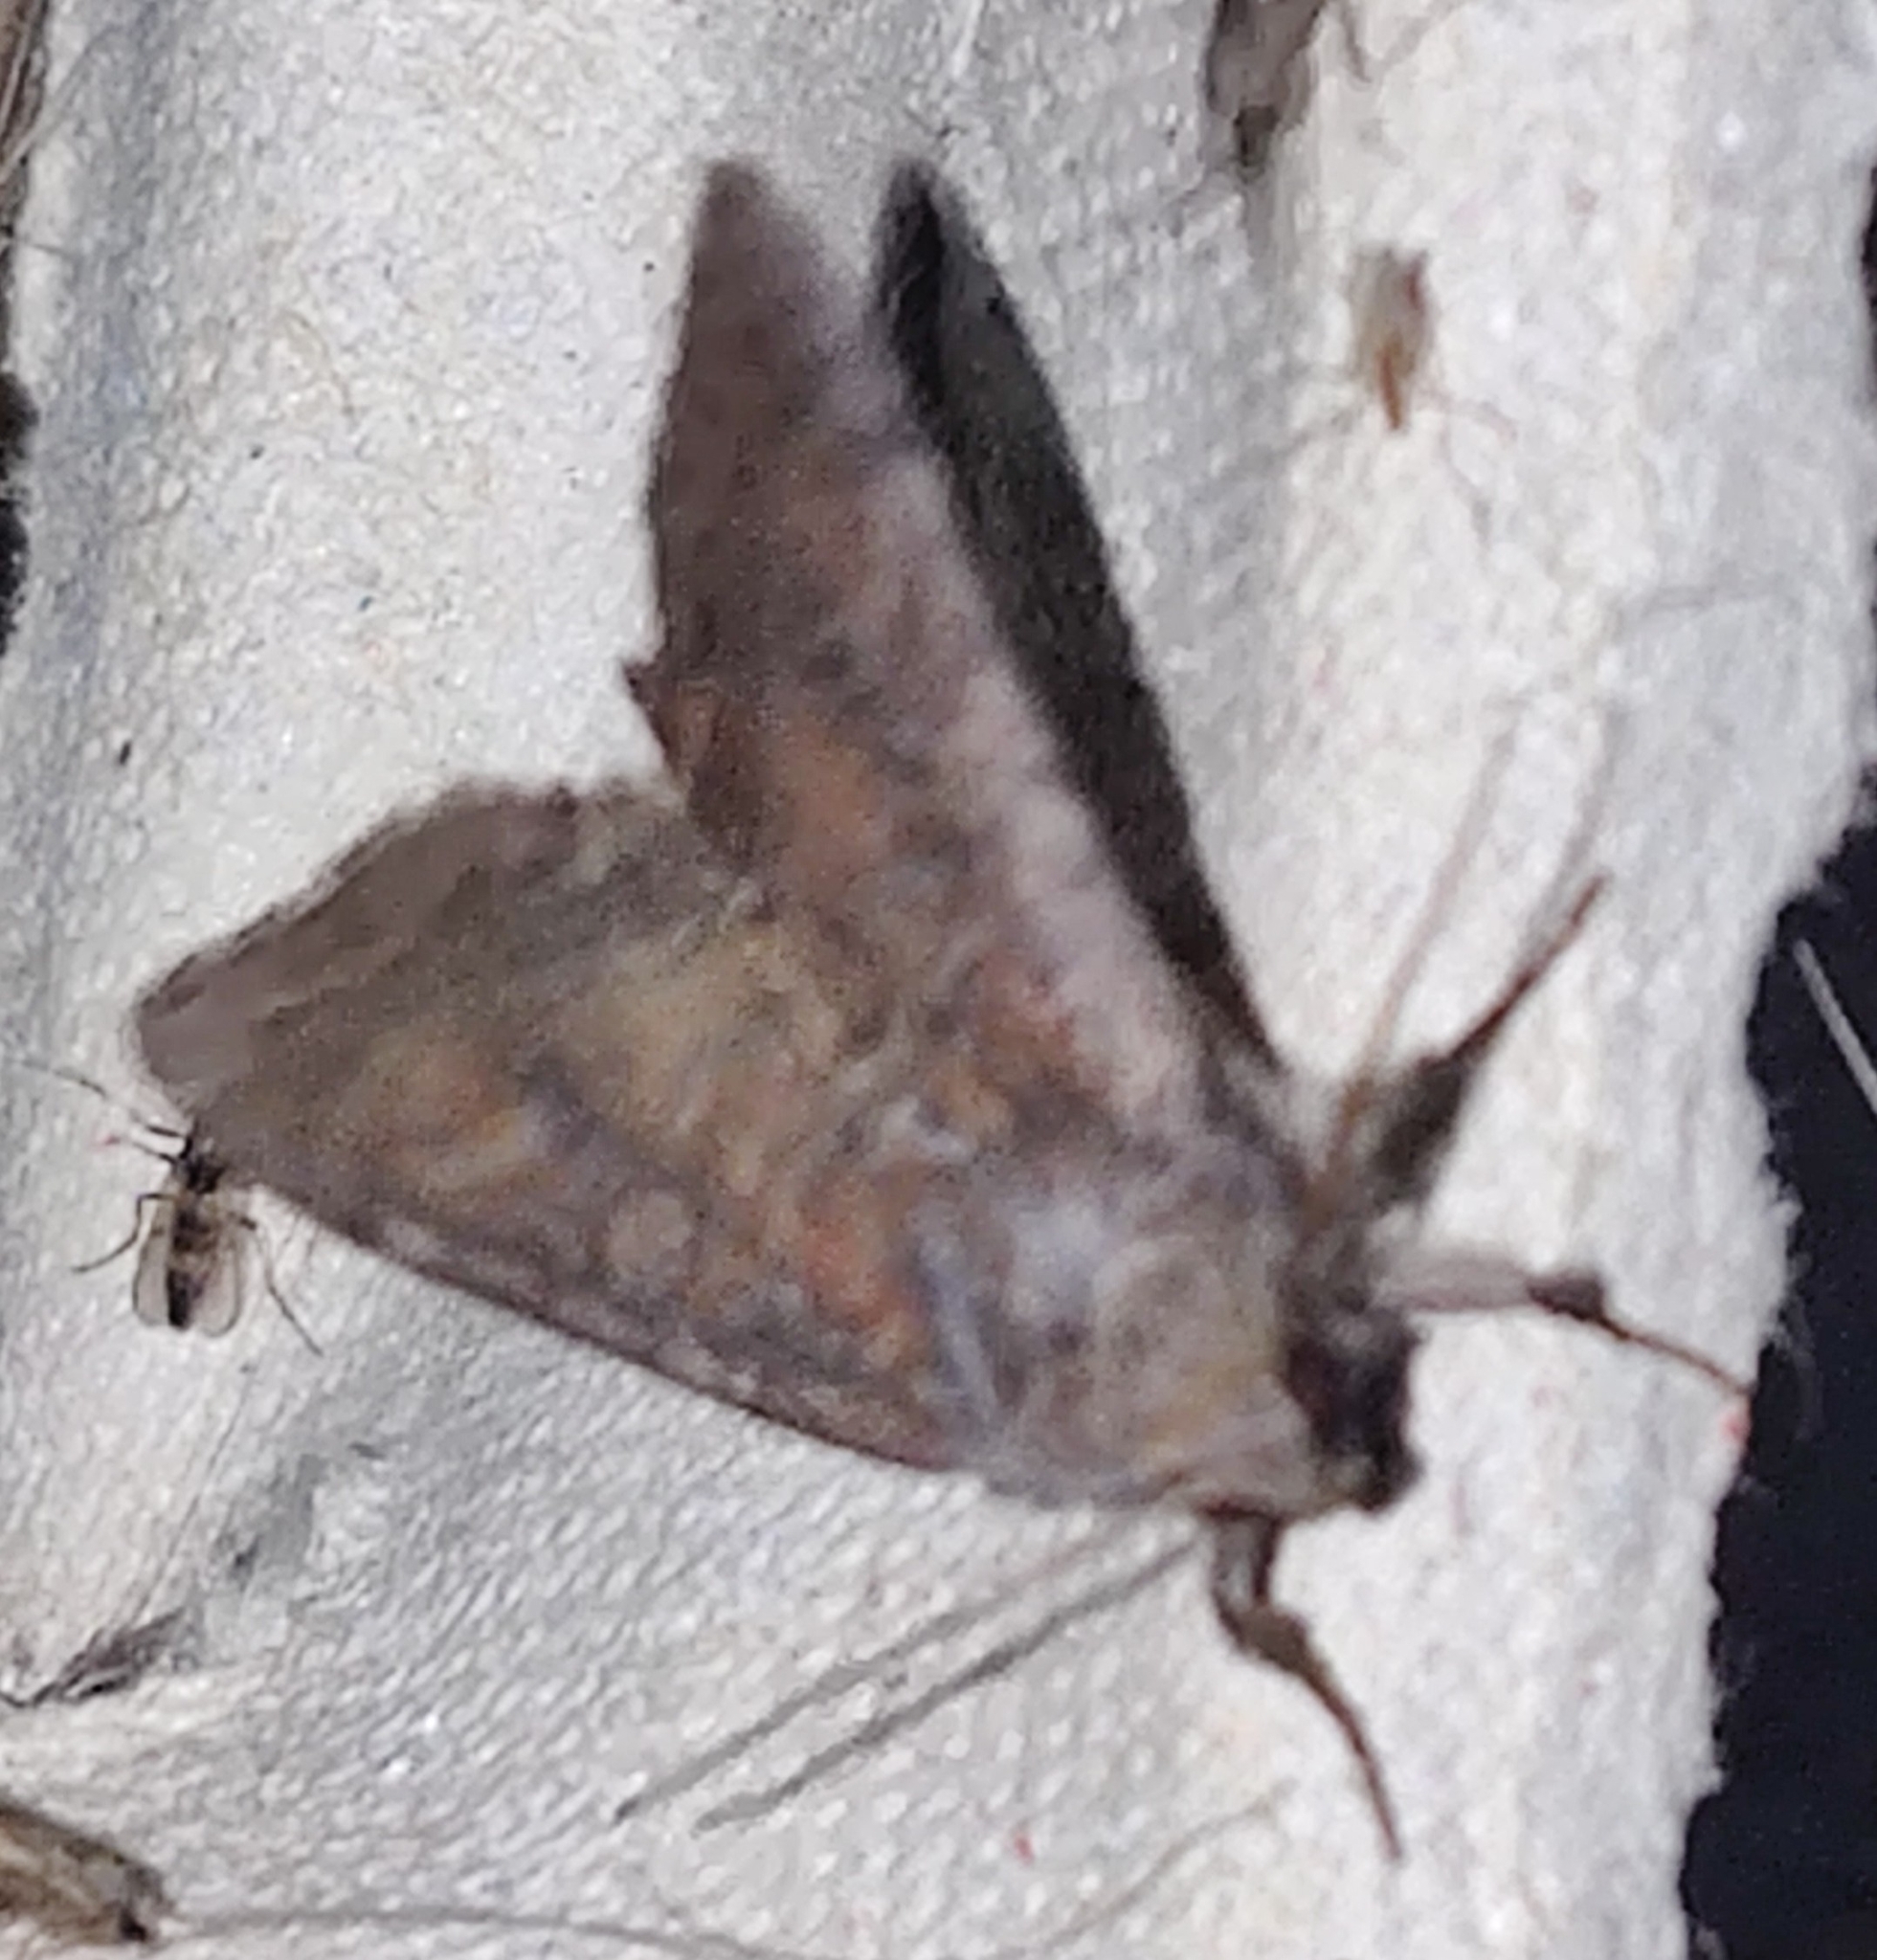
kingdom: Animalia
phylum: Arthropoda
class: Insecta
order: Lepidoptera
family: Noctuidae
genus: Parastichtis
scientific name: Parastichtis suspecta
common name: Suspected
